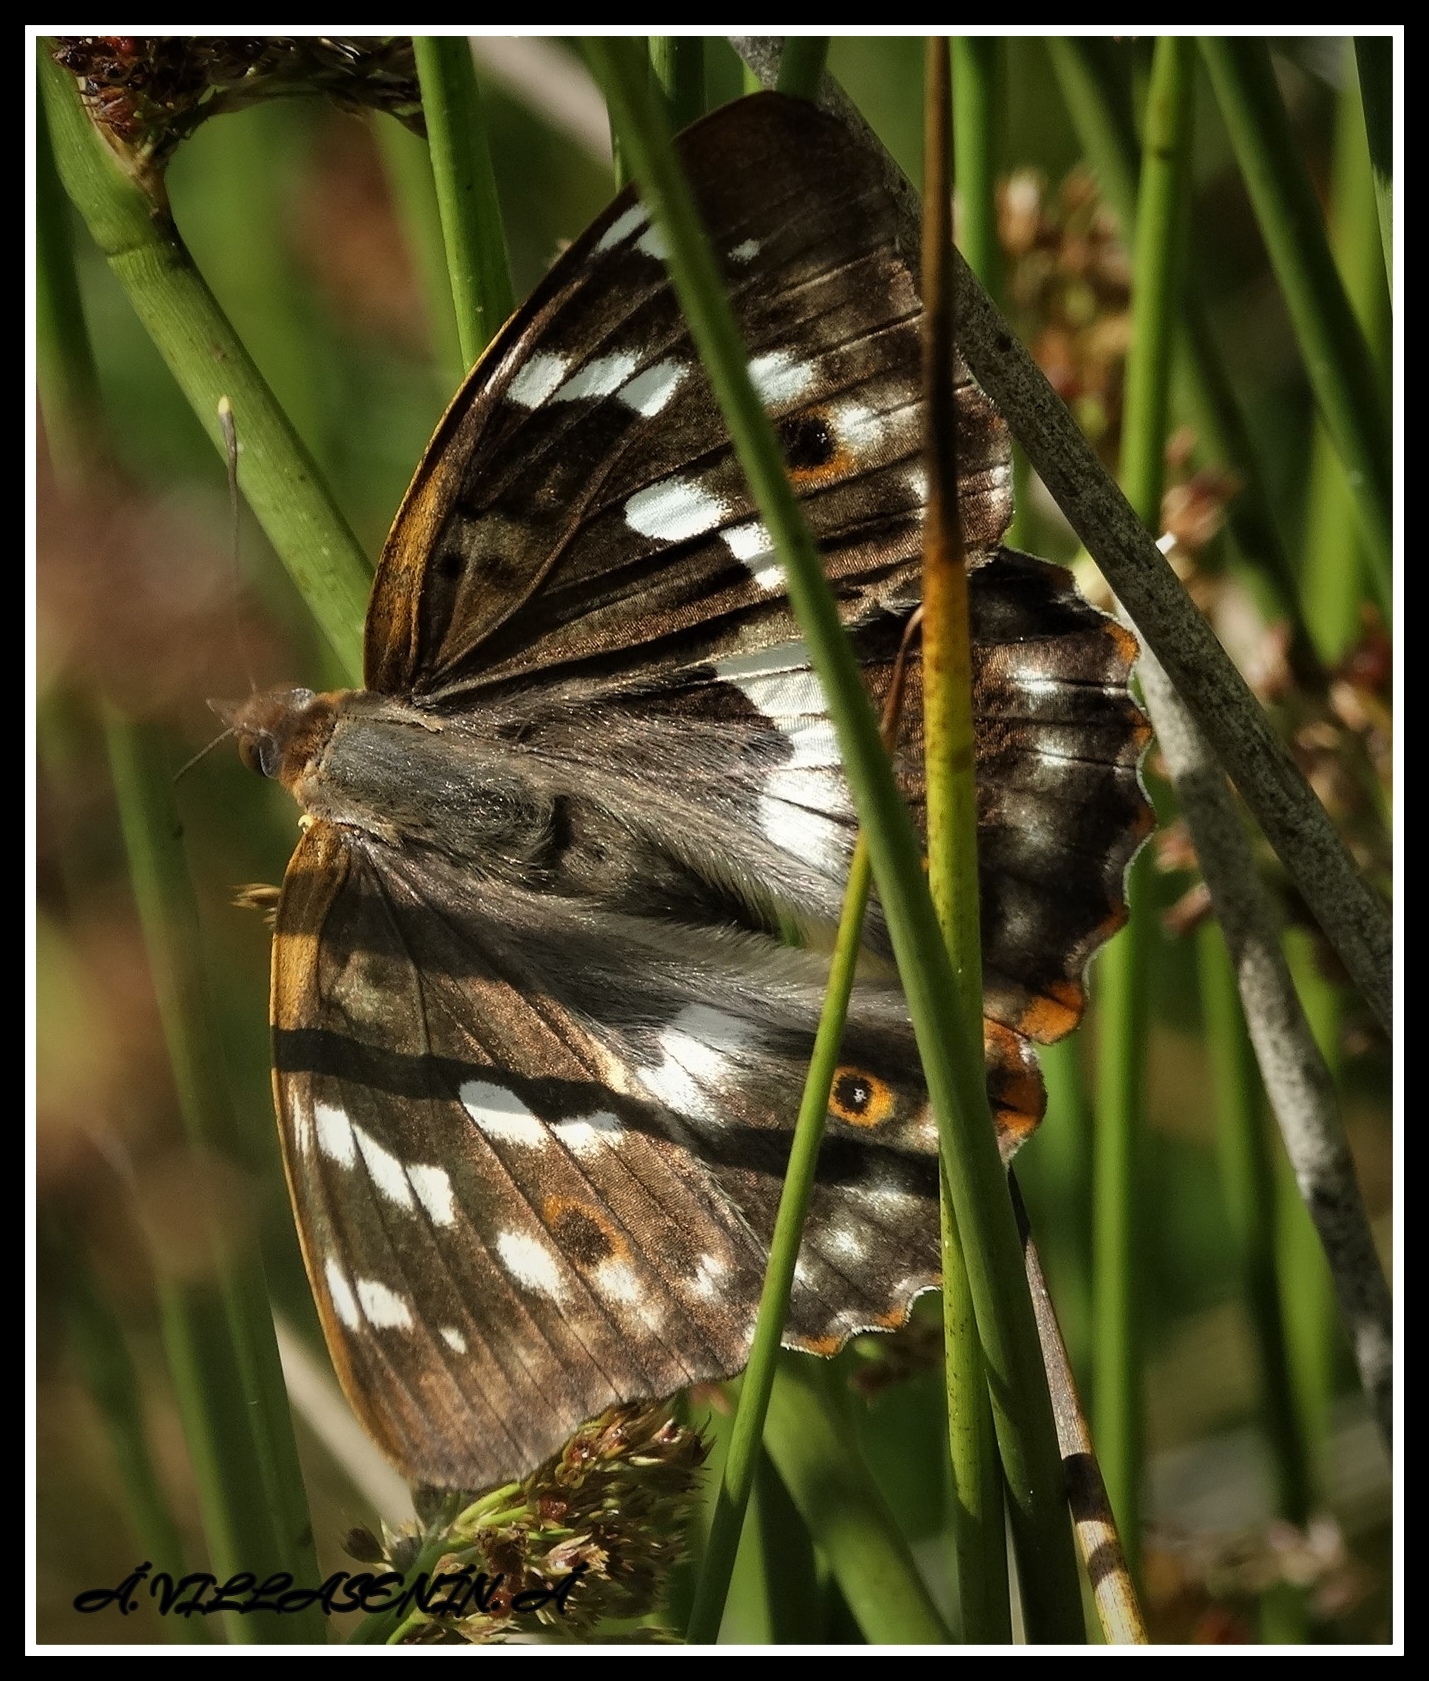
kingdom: Animalia
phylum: Arthropoda
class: Insecta
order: Lepidoptera
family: Nymphalidae
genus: Apatura
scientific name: Apatura ilia
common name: Lesser purple emperor
